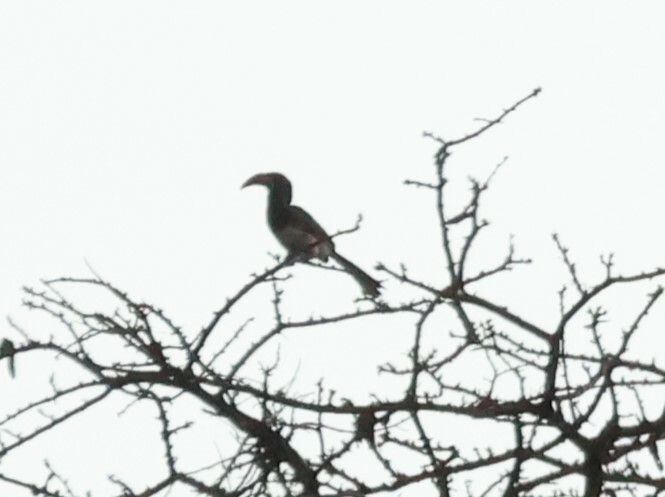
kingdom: Animalia
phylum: Chordata
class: Aves
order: Bucerotiformes
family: Bucerotidae
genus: Tockus
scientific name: Tockus monteiri
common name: Monteiro's hornbill
